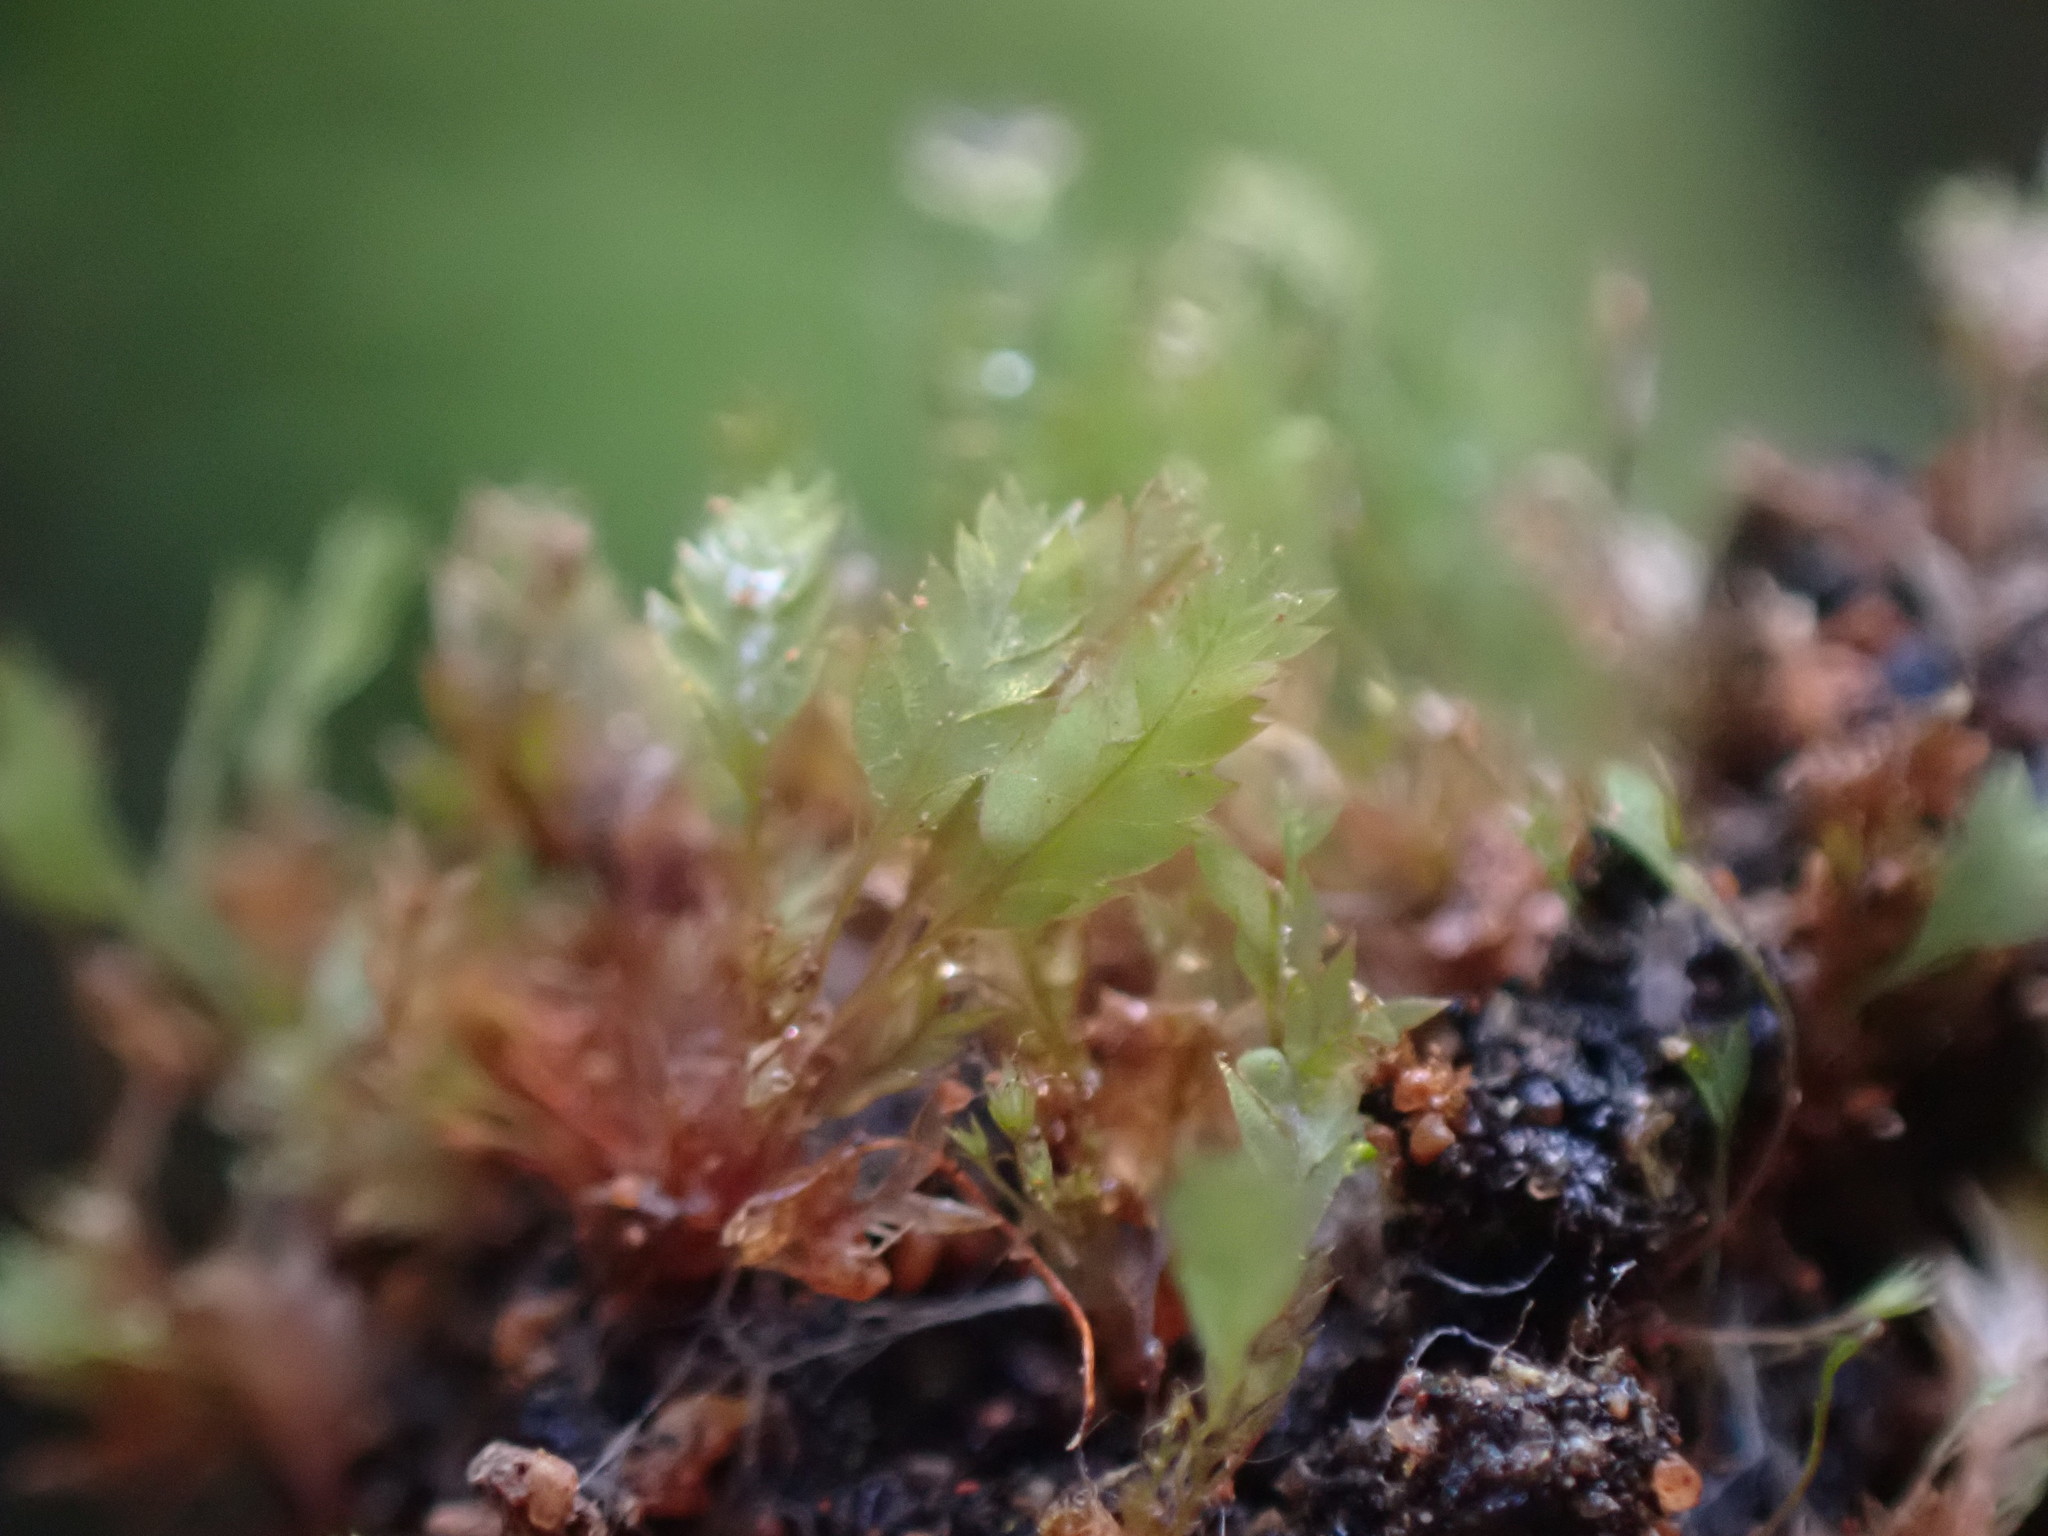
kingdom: Plantae
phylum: Bryophyta
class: Bryopsida
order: Dicranales
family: Schistostegaceae
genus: Schistostega
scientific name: Schistostega pennata
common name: Luminous moss
